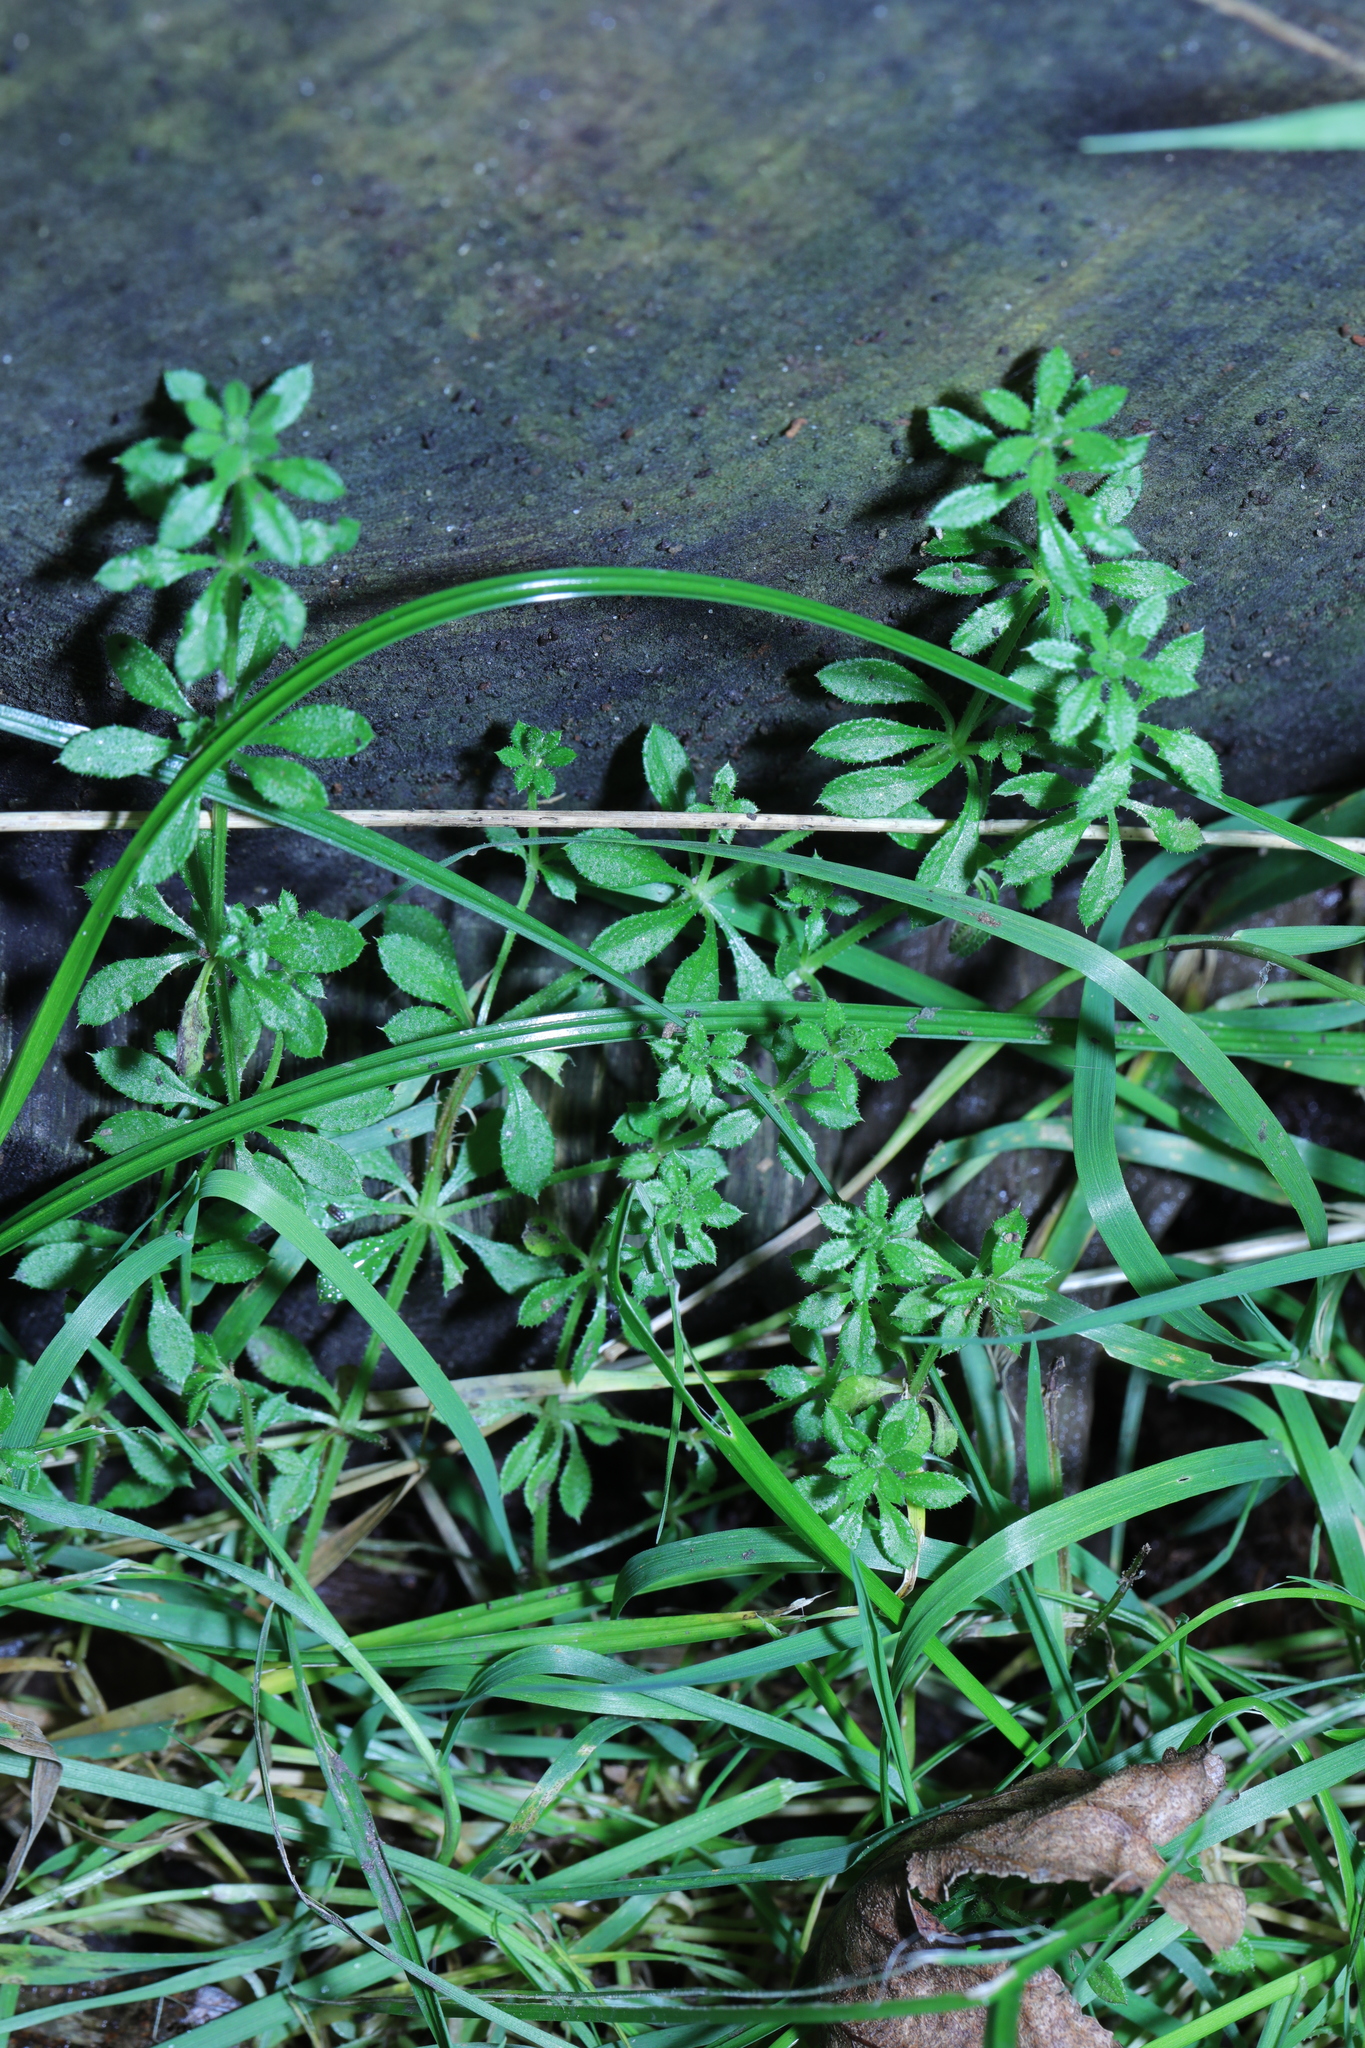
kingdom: Plantae
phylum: Tracheophyta
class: Magnoliopsida
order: Gentianales
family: Rubiaceae
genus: Galium
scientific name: Galium aparine
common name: Cleavers
